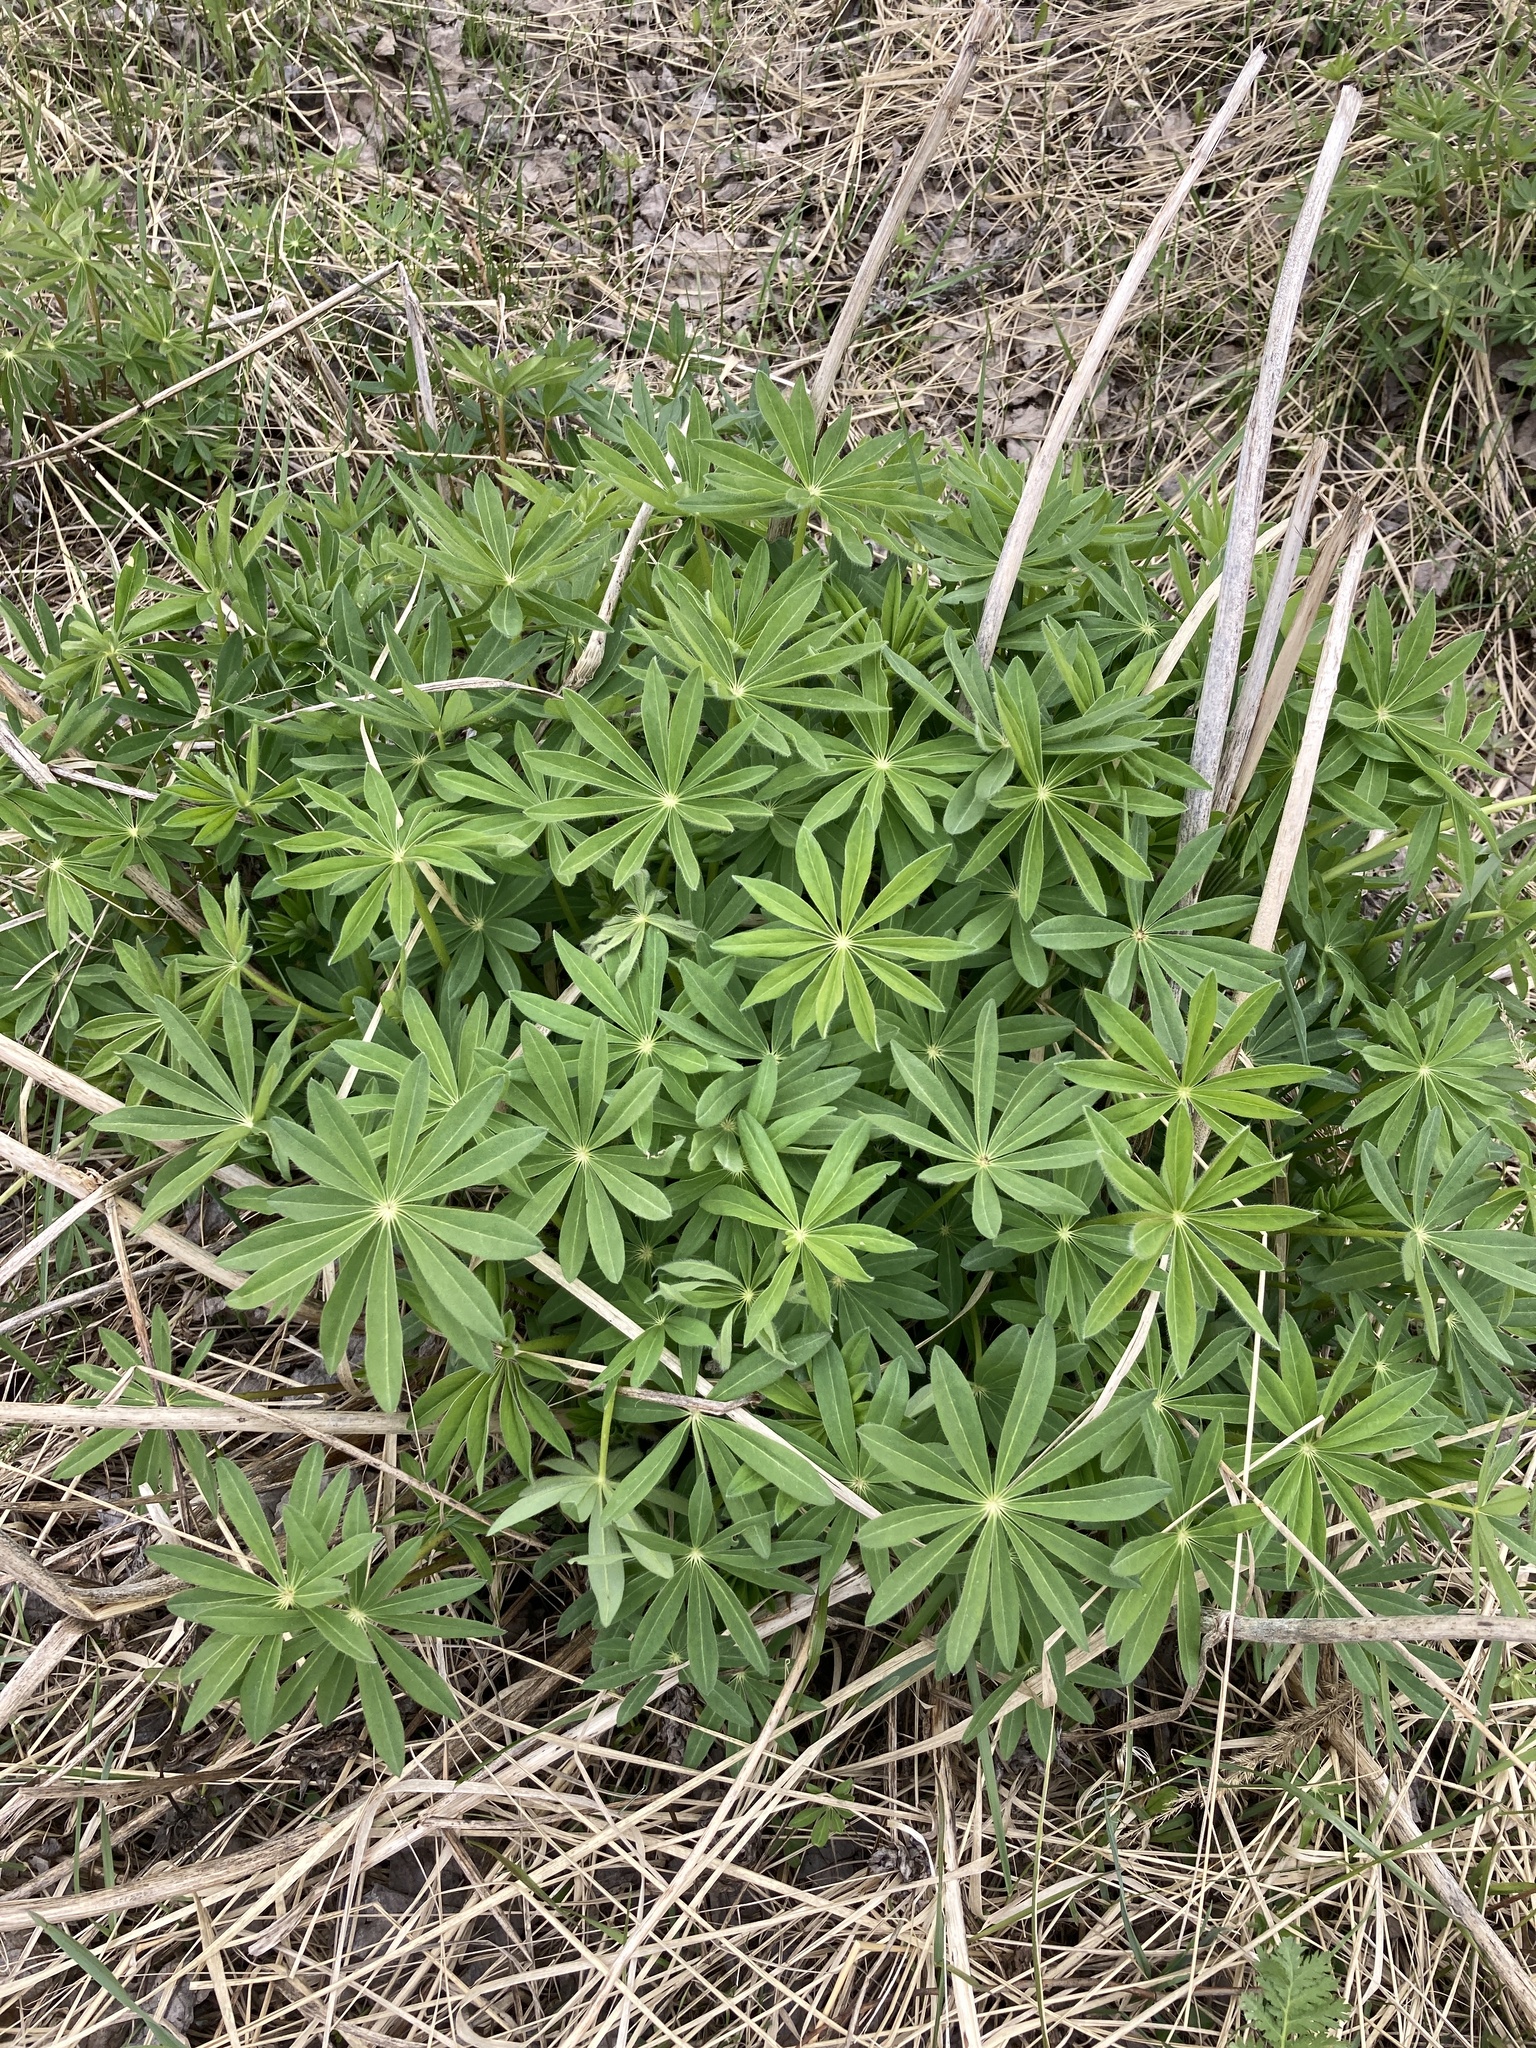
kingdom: Plantae
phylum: Tracheophyta
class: Magnoliopsida
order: Fabales
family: Fabaceae
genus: Lupinus
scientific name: Lupinus polyphyllus
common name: Garden lupin
